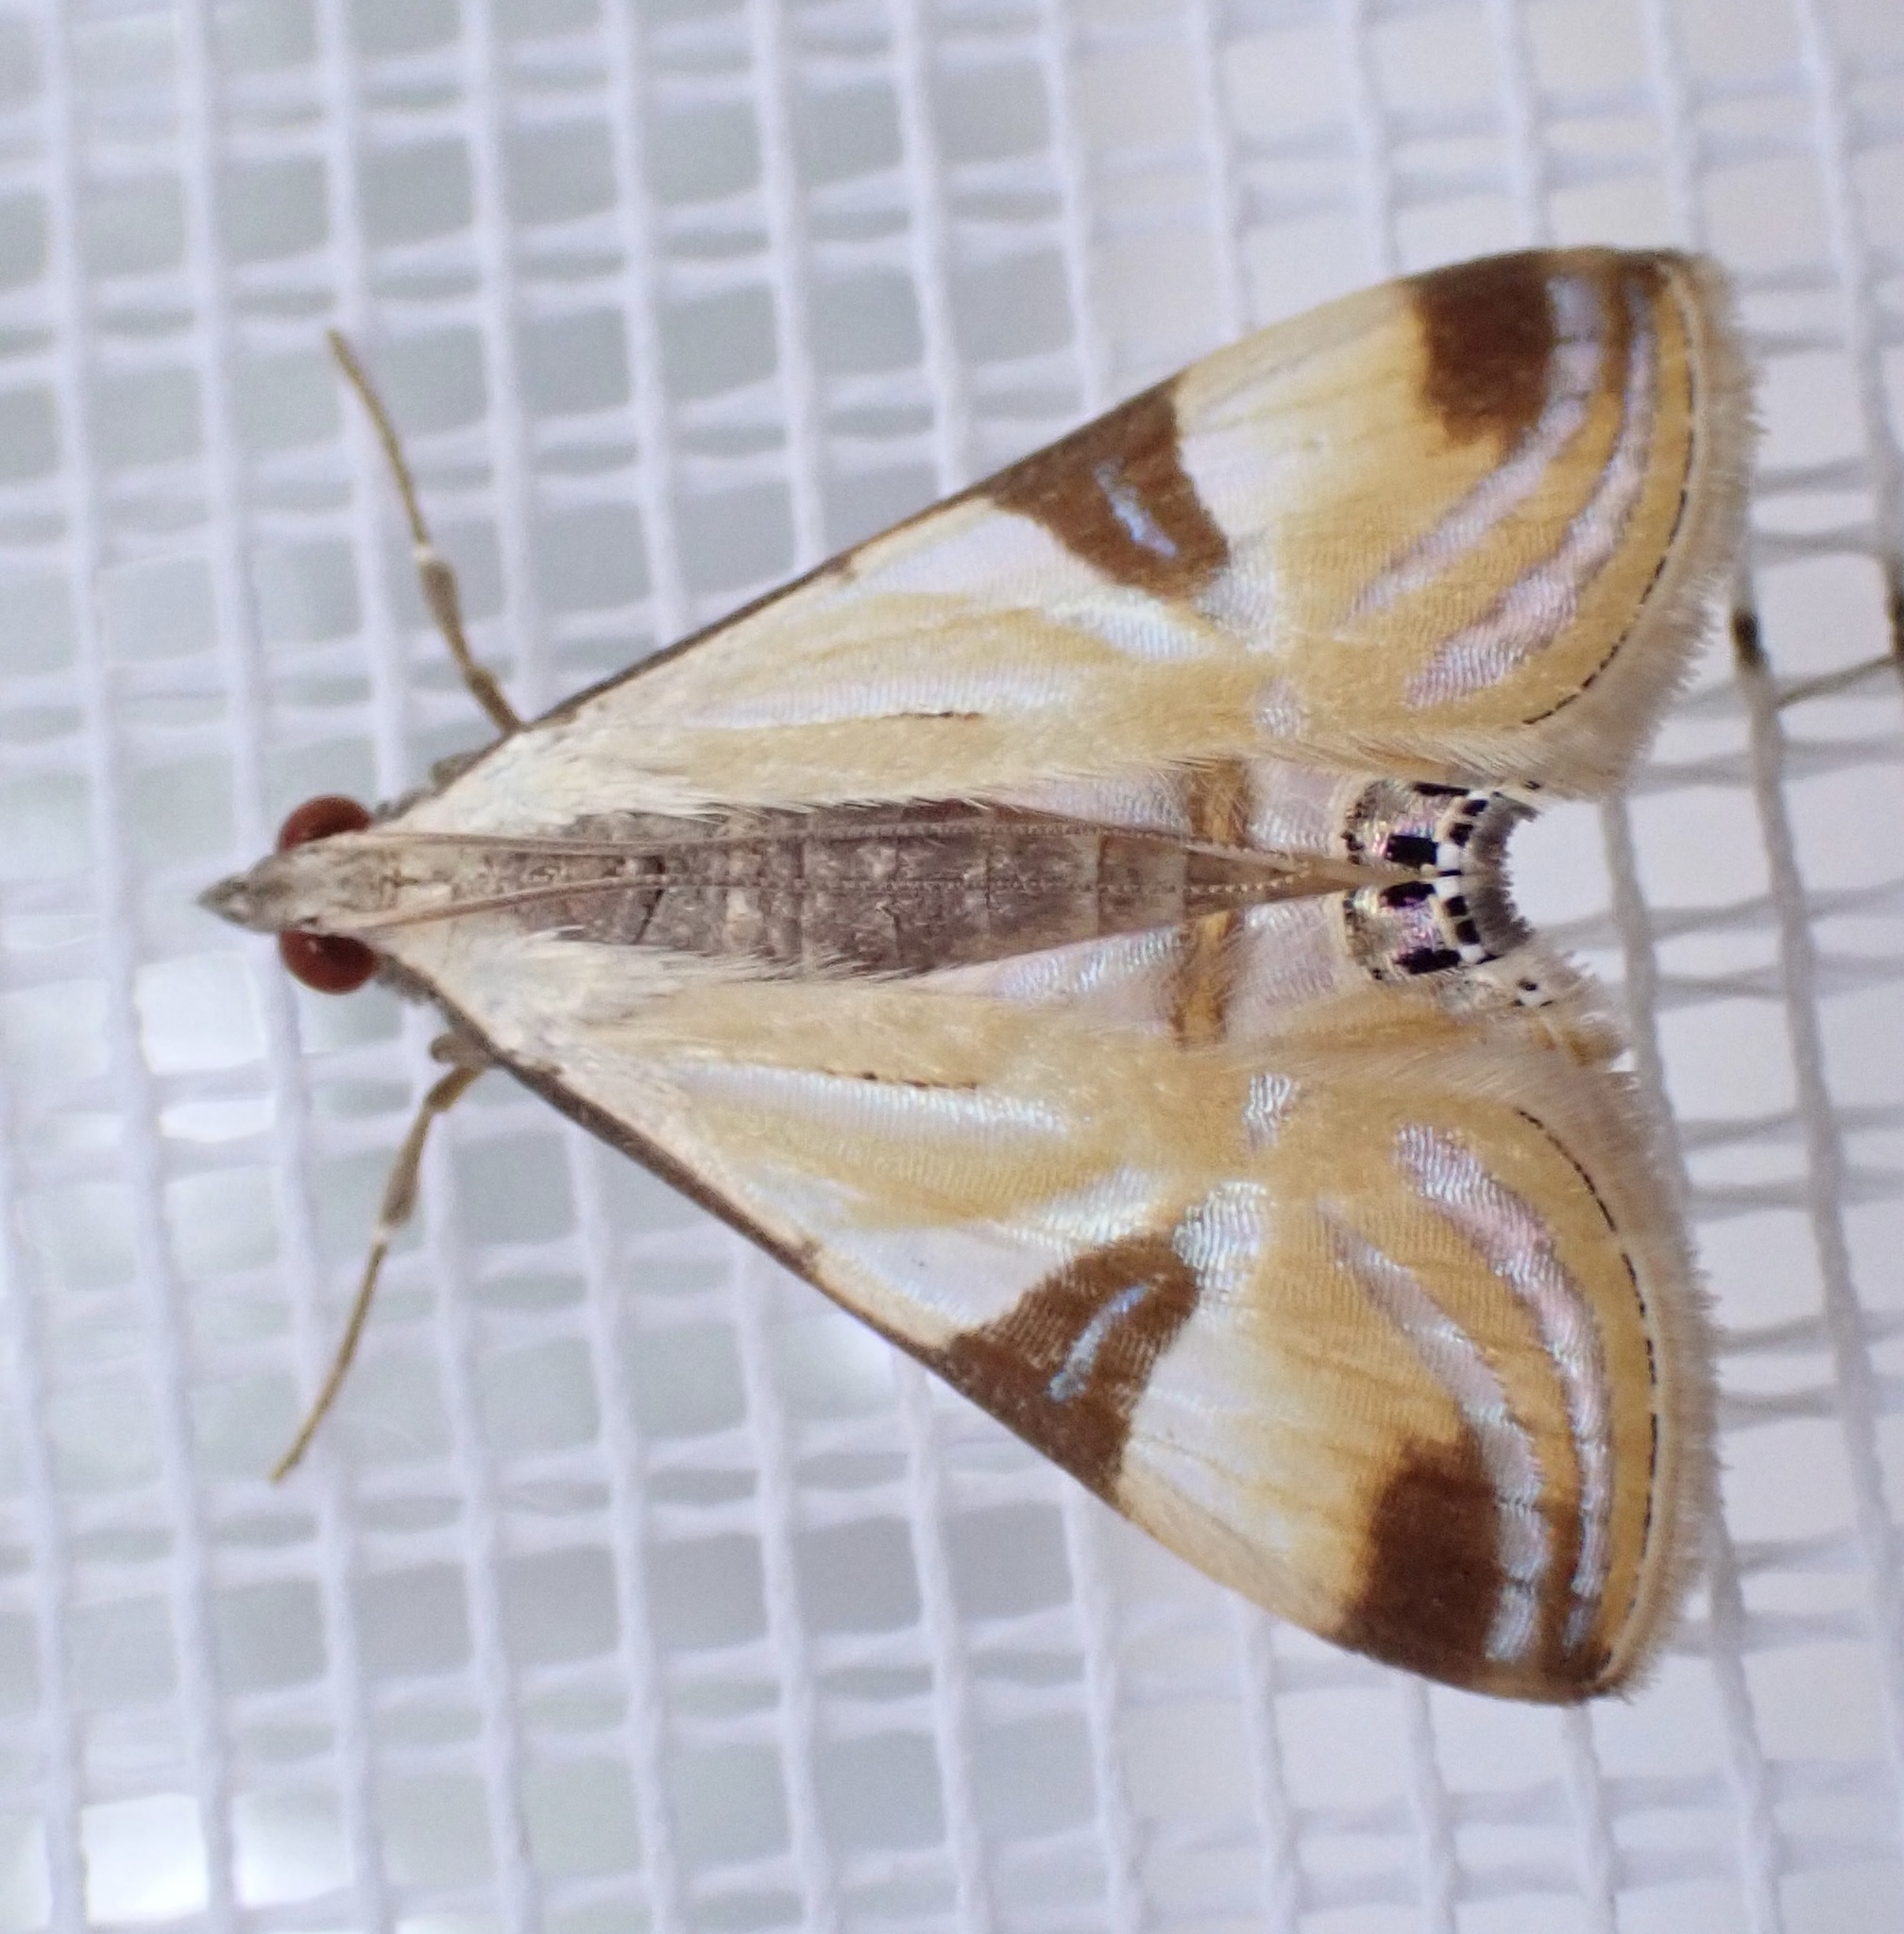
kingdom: Animalia
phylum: Arthropoda
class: Insecta
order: Lepidoptera
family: Crambidae
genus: Talanga
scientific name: Talanga tolumnialis
